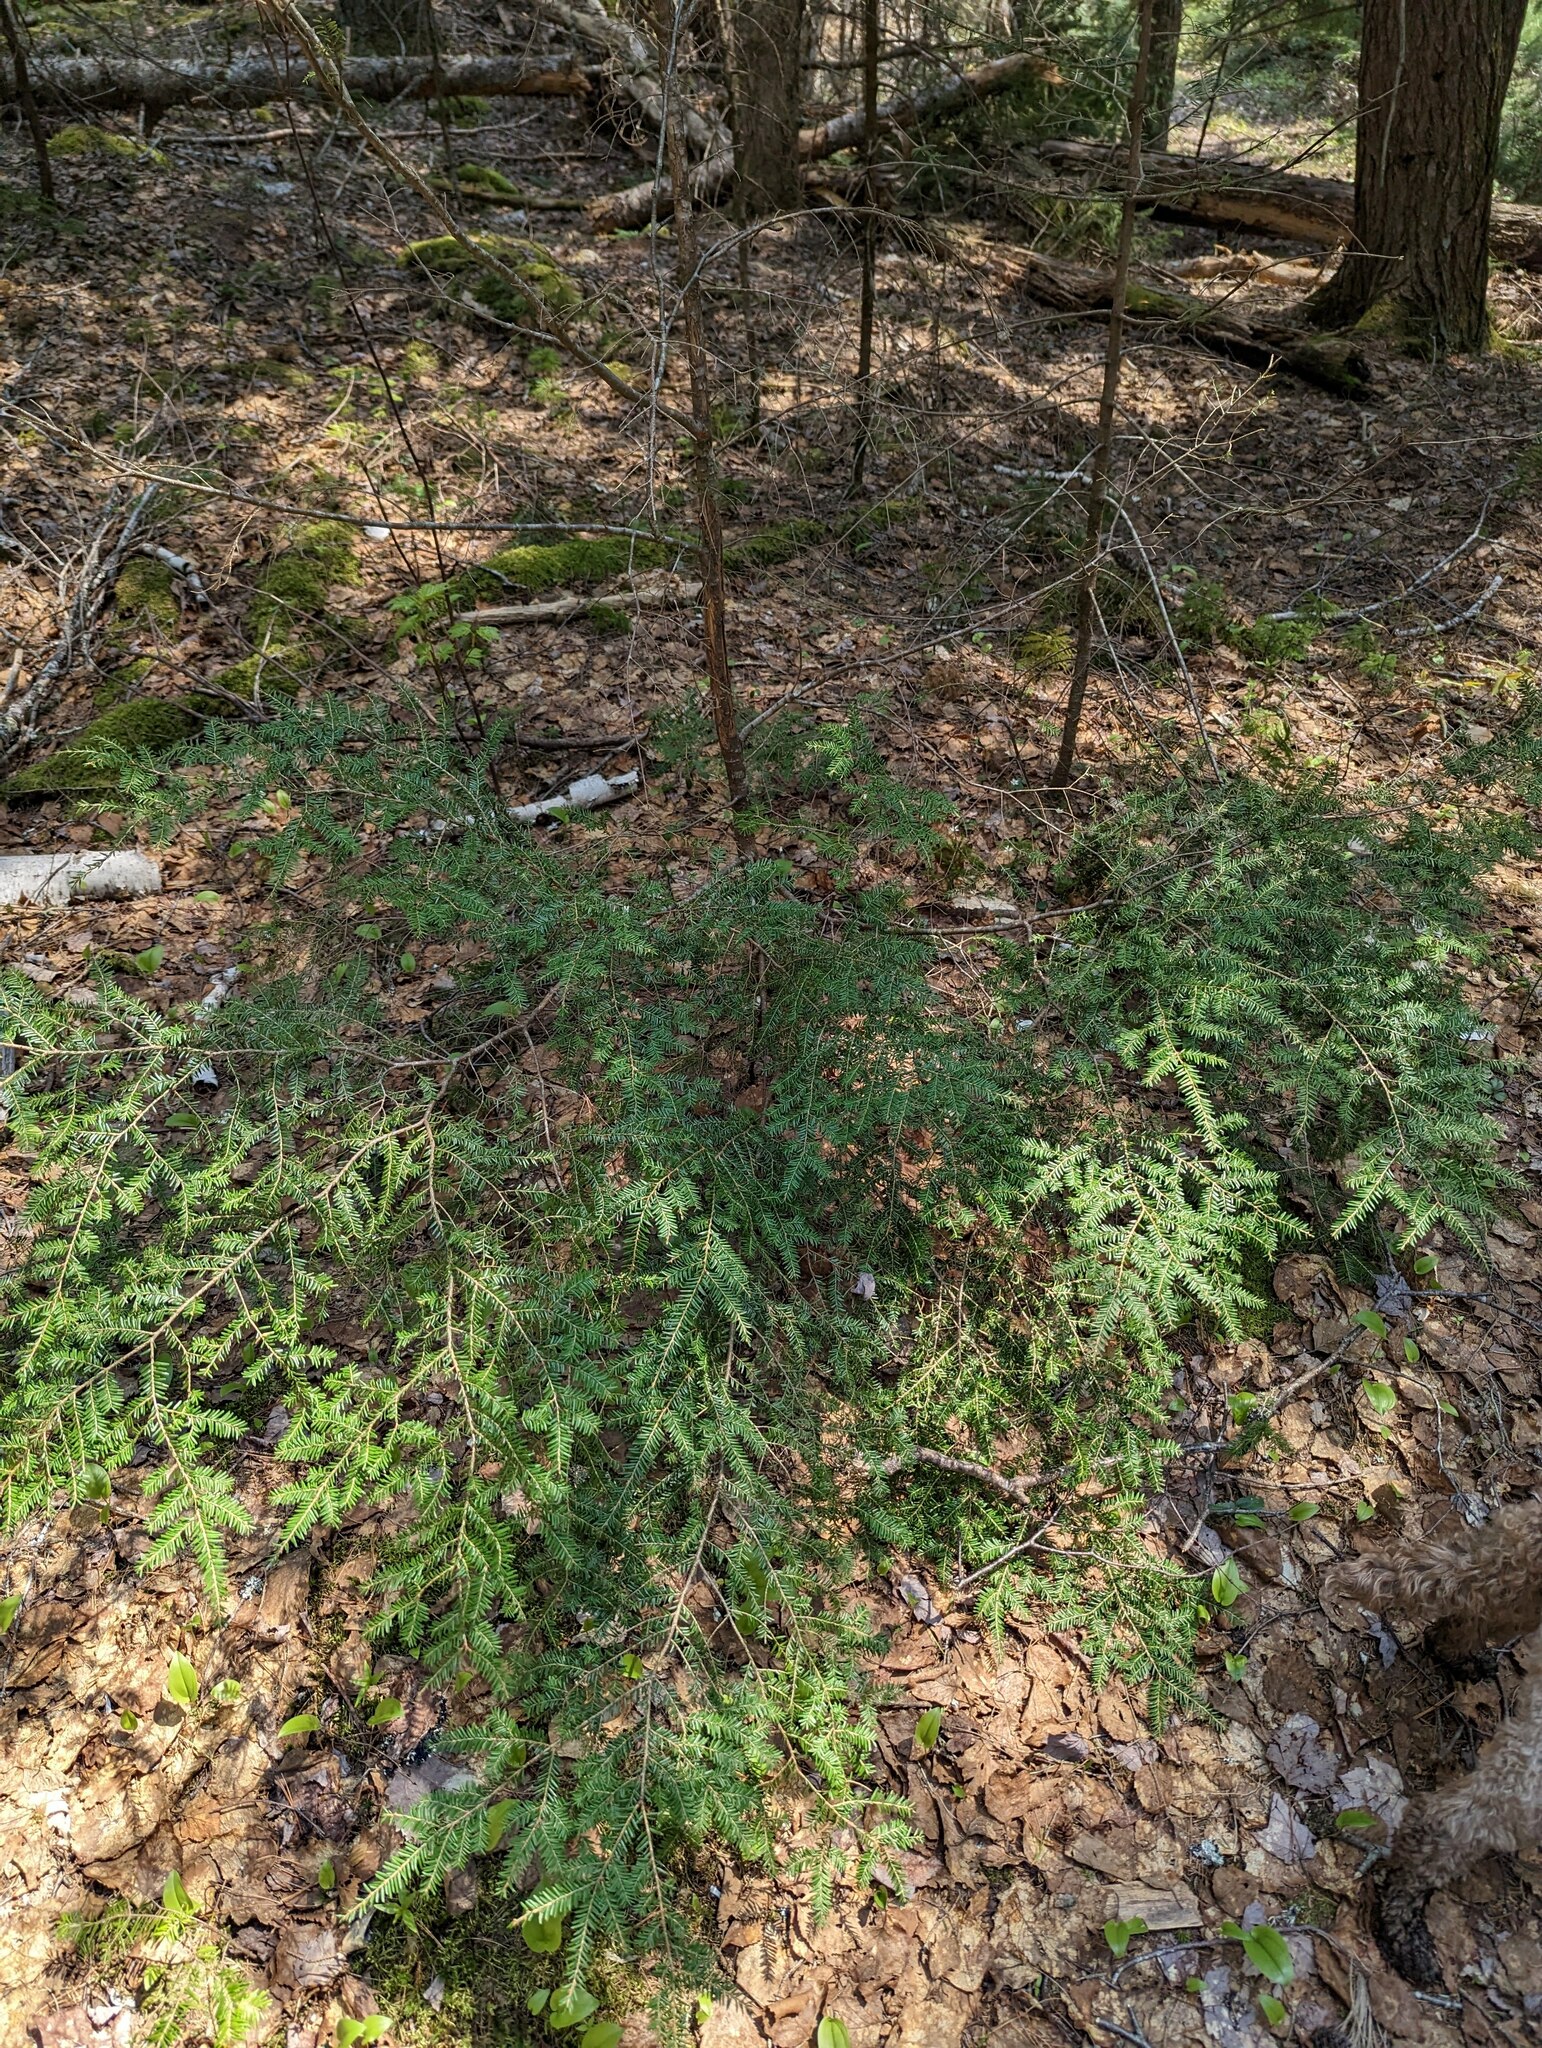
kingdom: Plantae
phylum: Tracheophyta
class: Pinopsida
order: Pinales
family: Pinaceae
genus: Tsuga
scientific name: Tsuga canadensis
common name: Eastern hemlock
